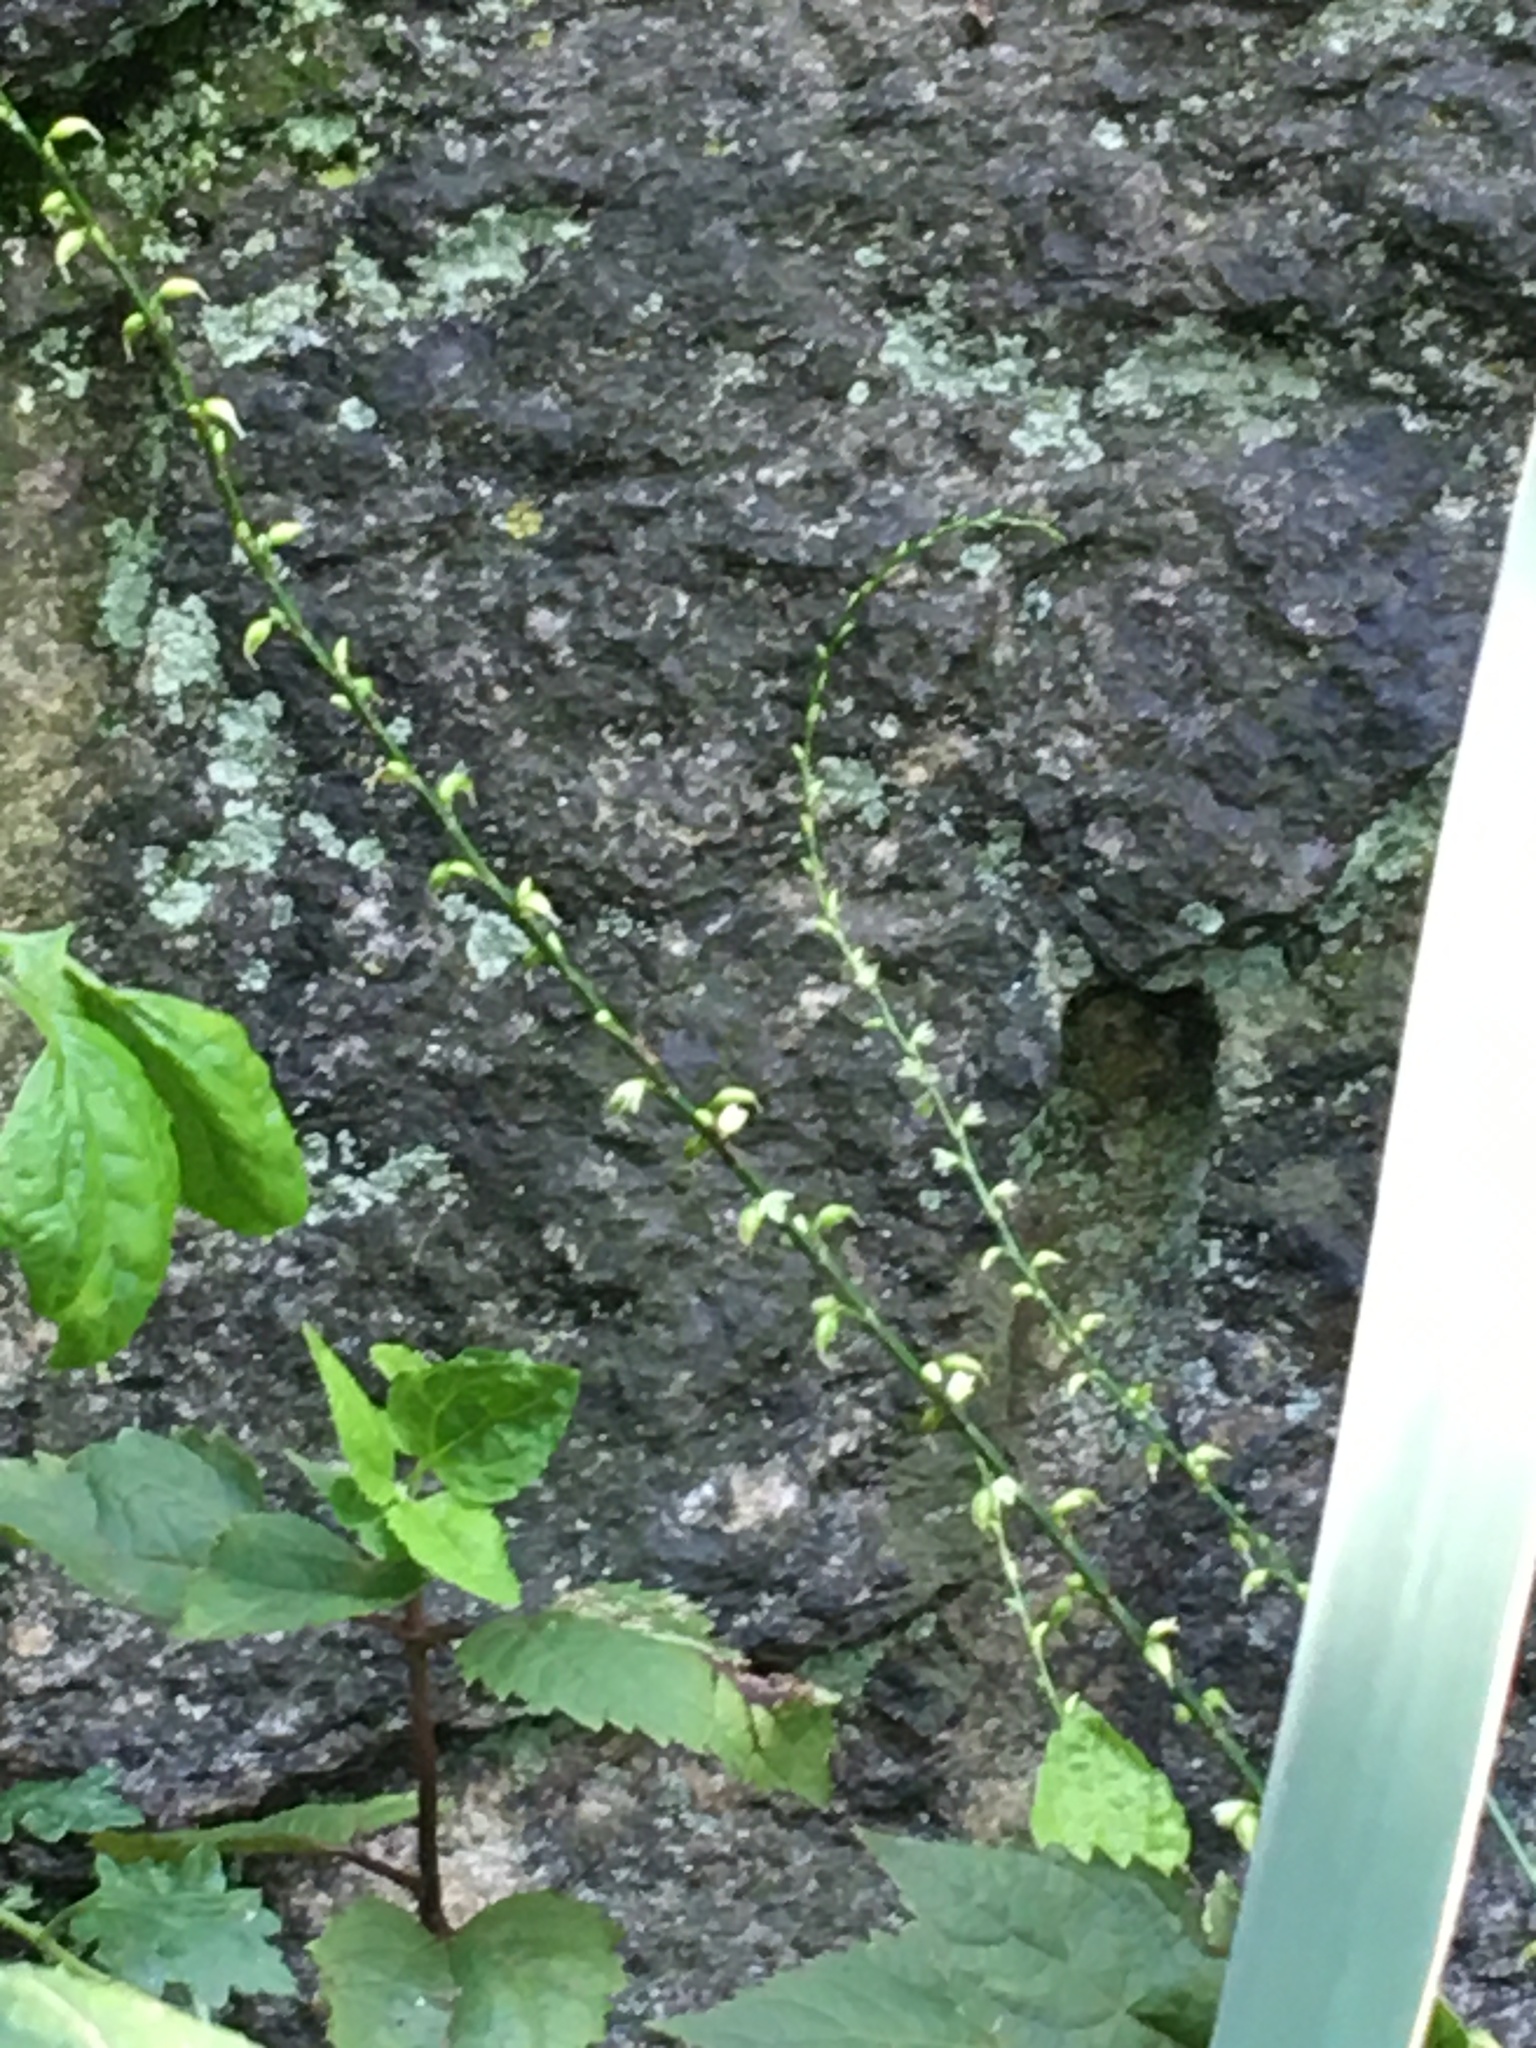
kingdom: Plantae
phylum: Tracheophyta
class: Magnoliopsida
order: Caryophyllales
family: Polygonaceae
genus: Persicaria
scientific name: Persicaria virginiana
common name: Jumpseed
